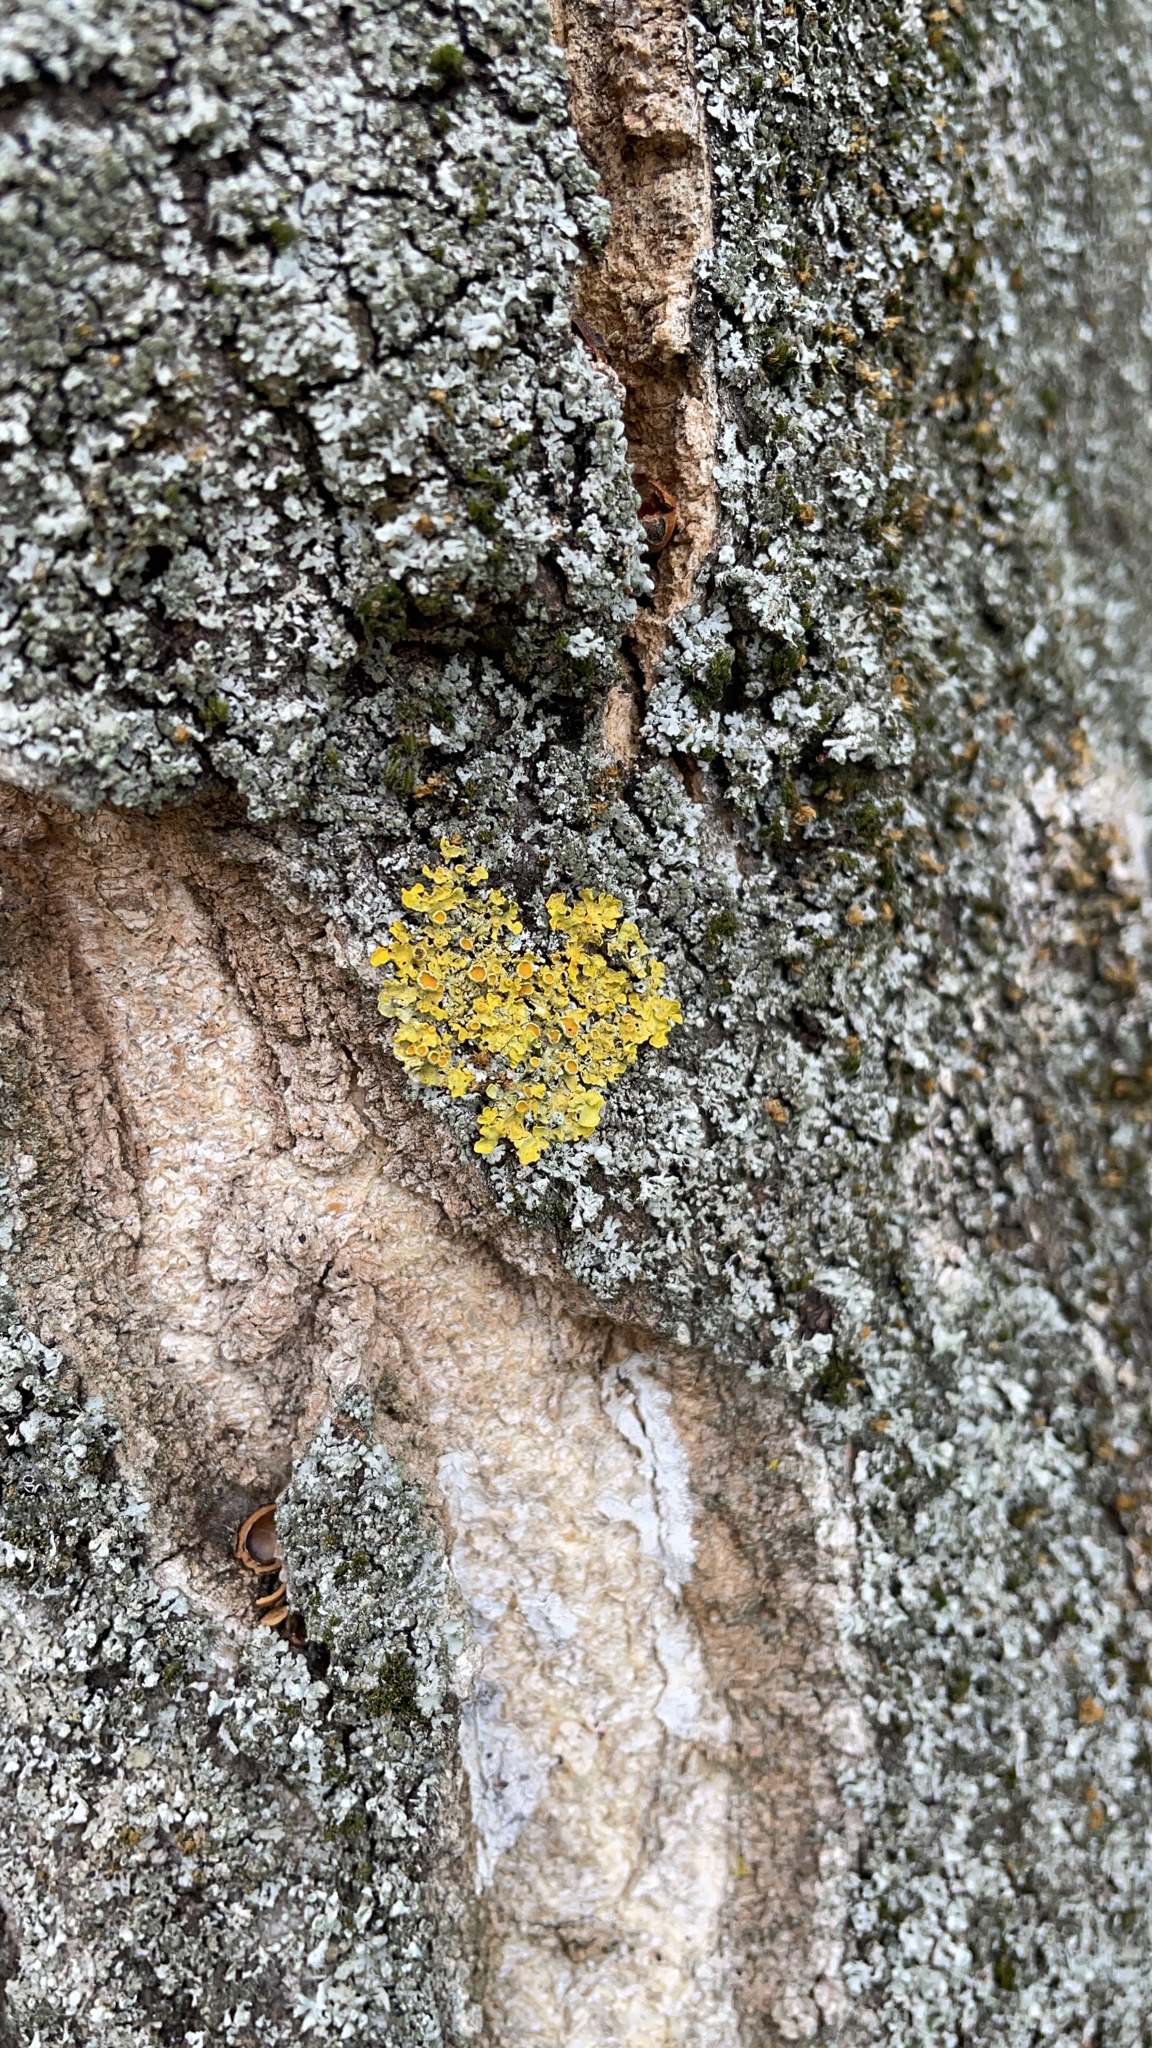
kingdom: Fungi
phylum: Ascomycota
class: Lecanoromycetes
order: Teloschistales
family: Teloschistaceae
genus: Xanthoria
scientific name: Xanthoria parietina
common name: Common orange lichen
